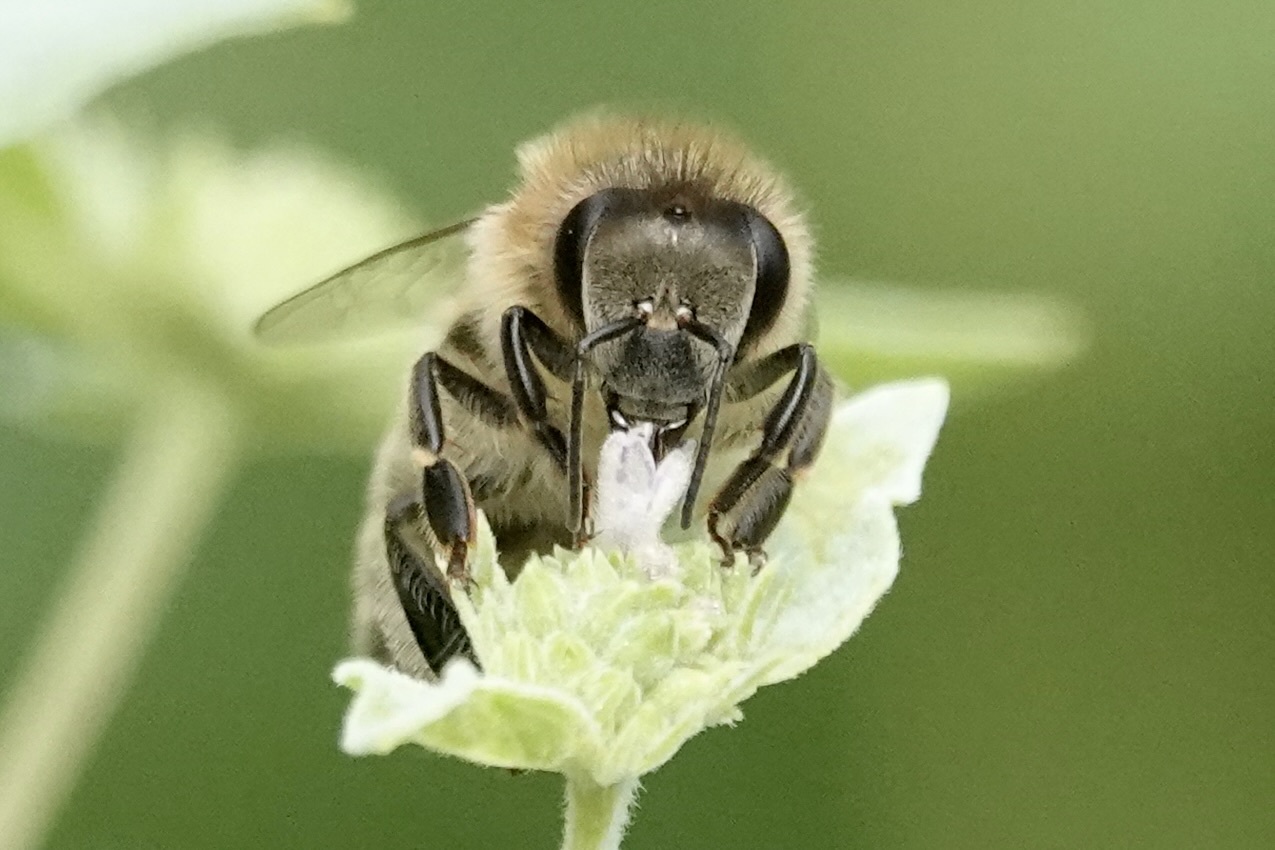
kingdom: Animalia
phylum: Arthropoda
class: Insecta
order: Hymenoptera
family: Apidae
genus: Apis
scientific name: Apis mellifera
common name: Honey bee
